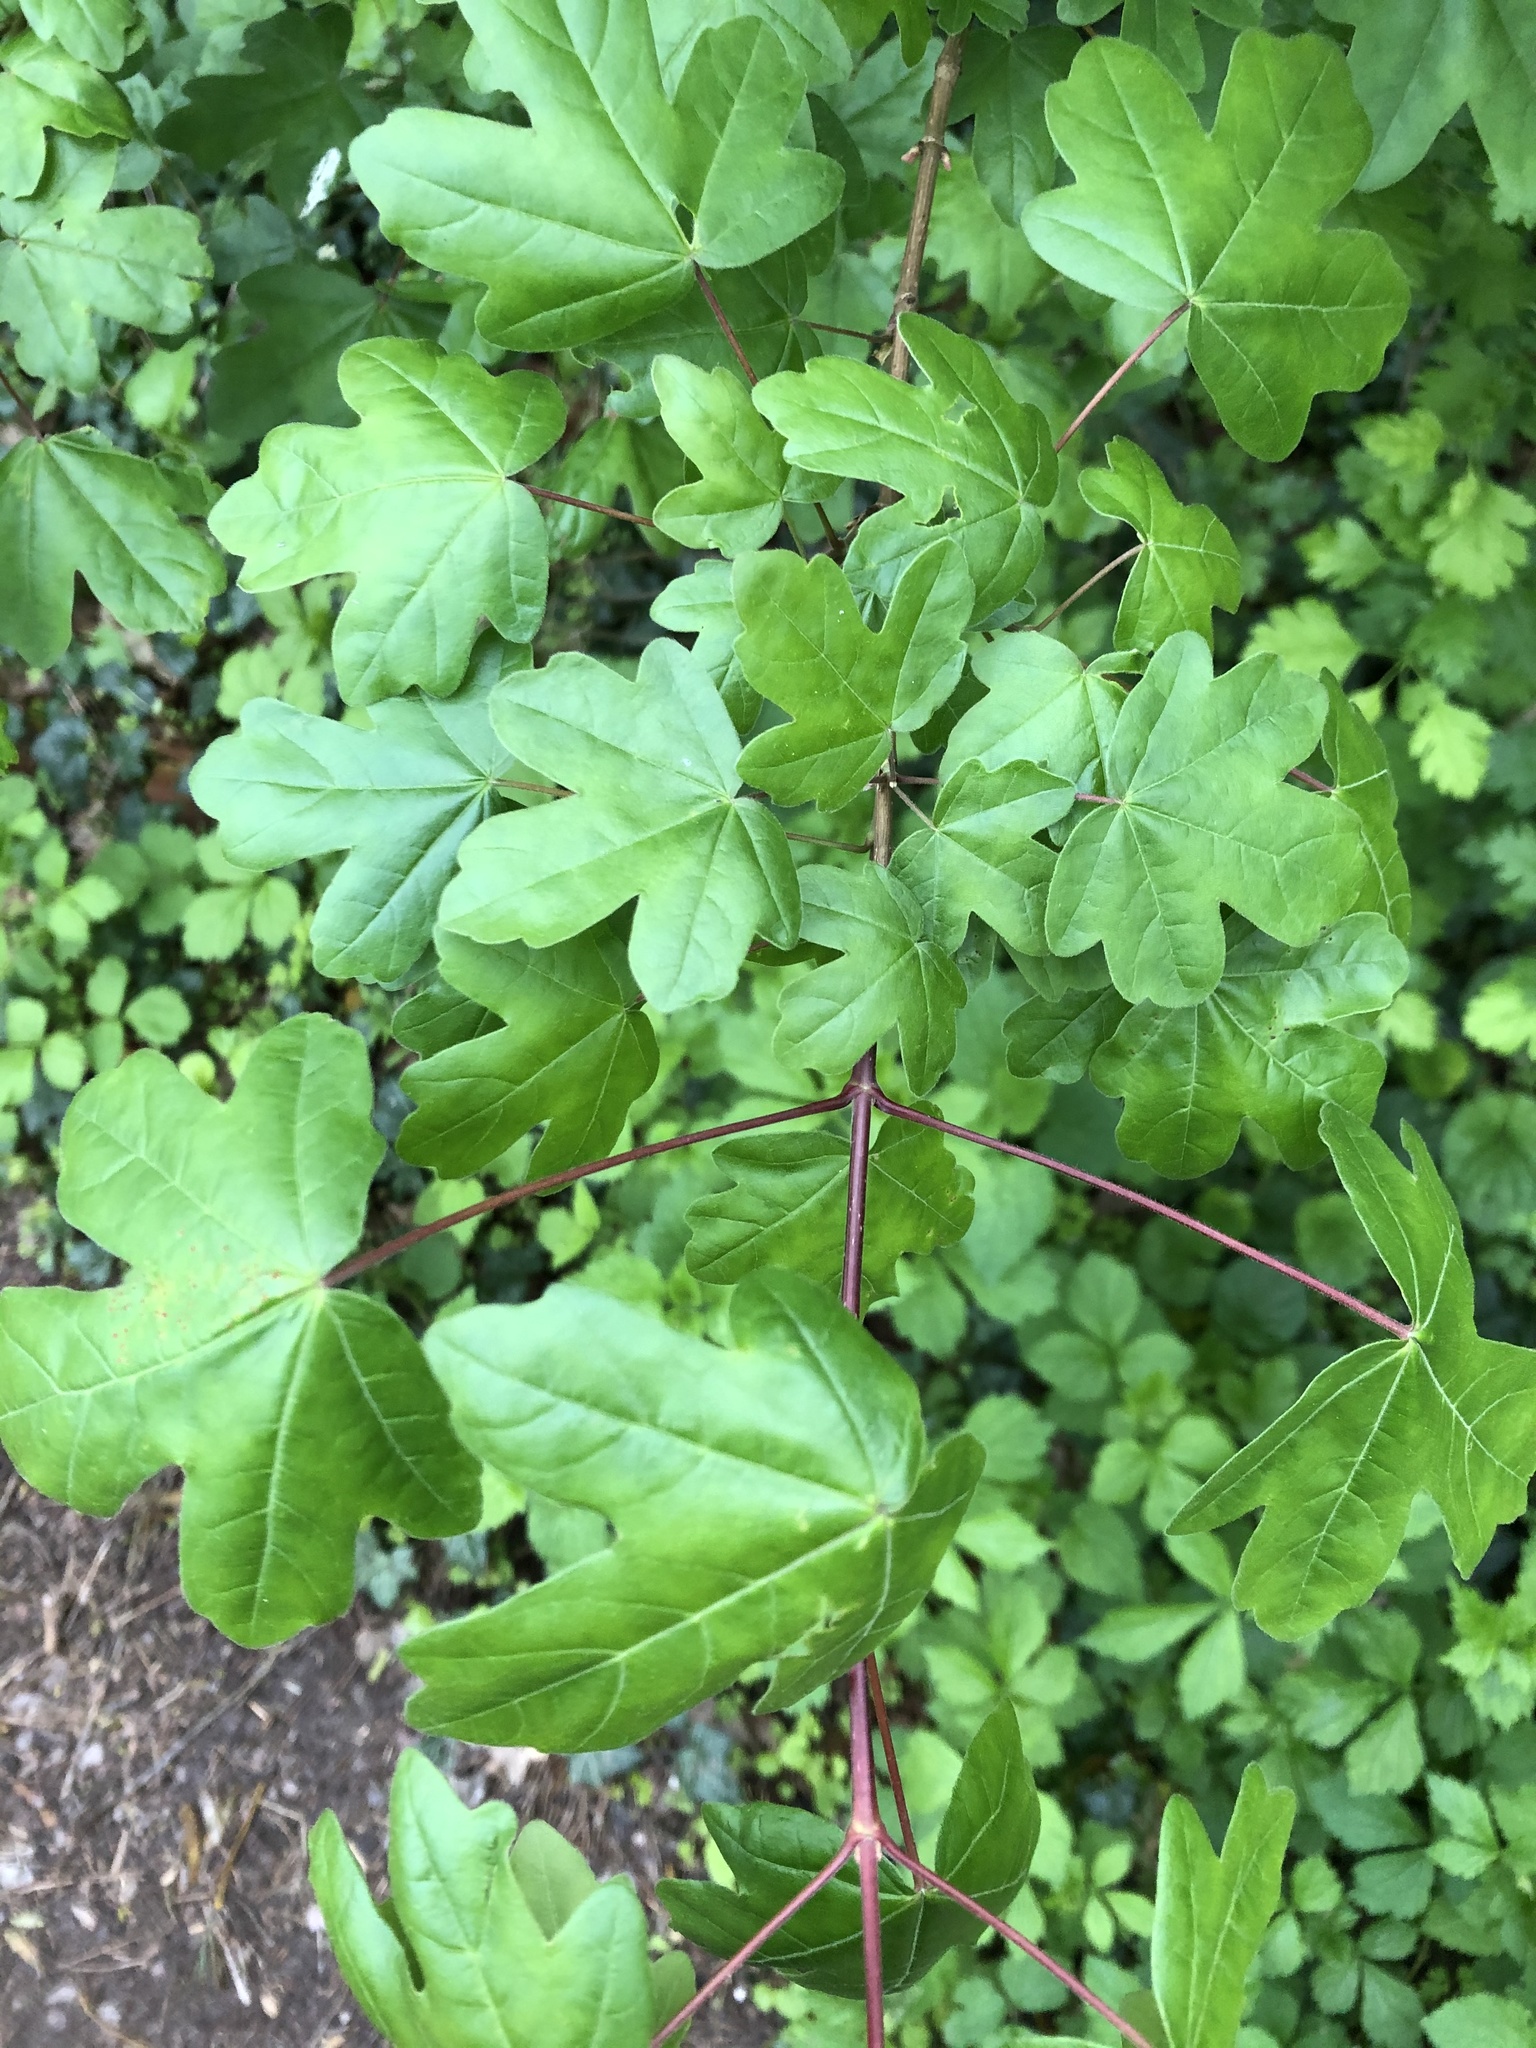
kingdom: Plantae
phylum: Tracheophyta
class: Magnoliopsida
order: Sapindales
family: Sapindaceae
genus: Acer
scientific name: Acer campestre
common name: Field maple
